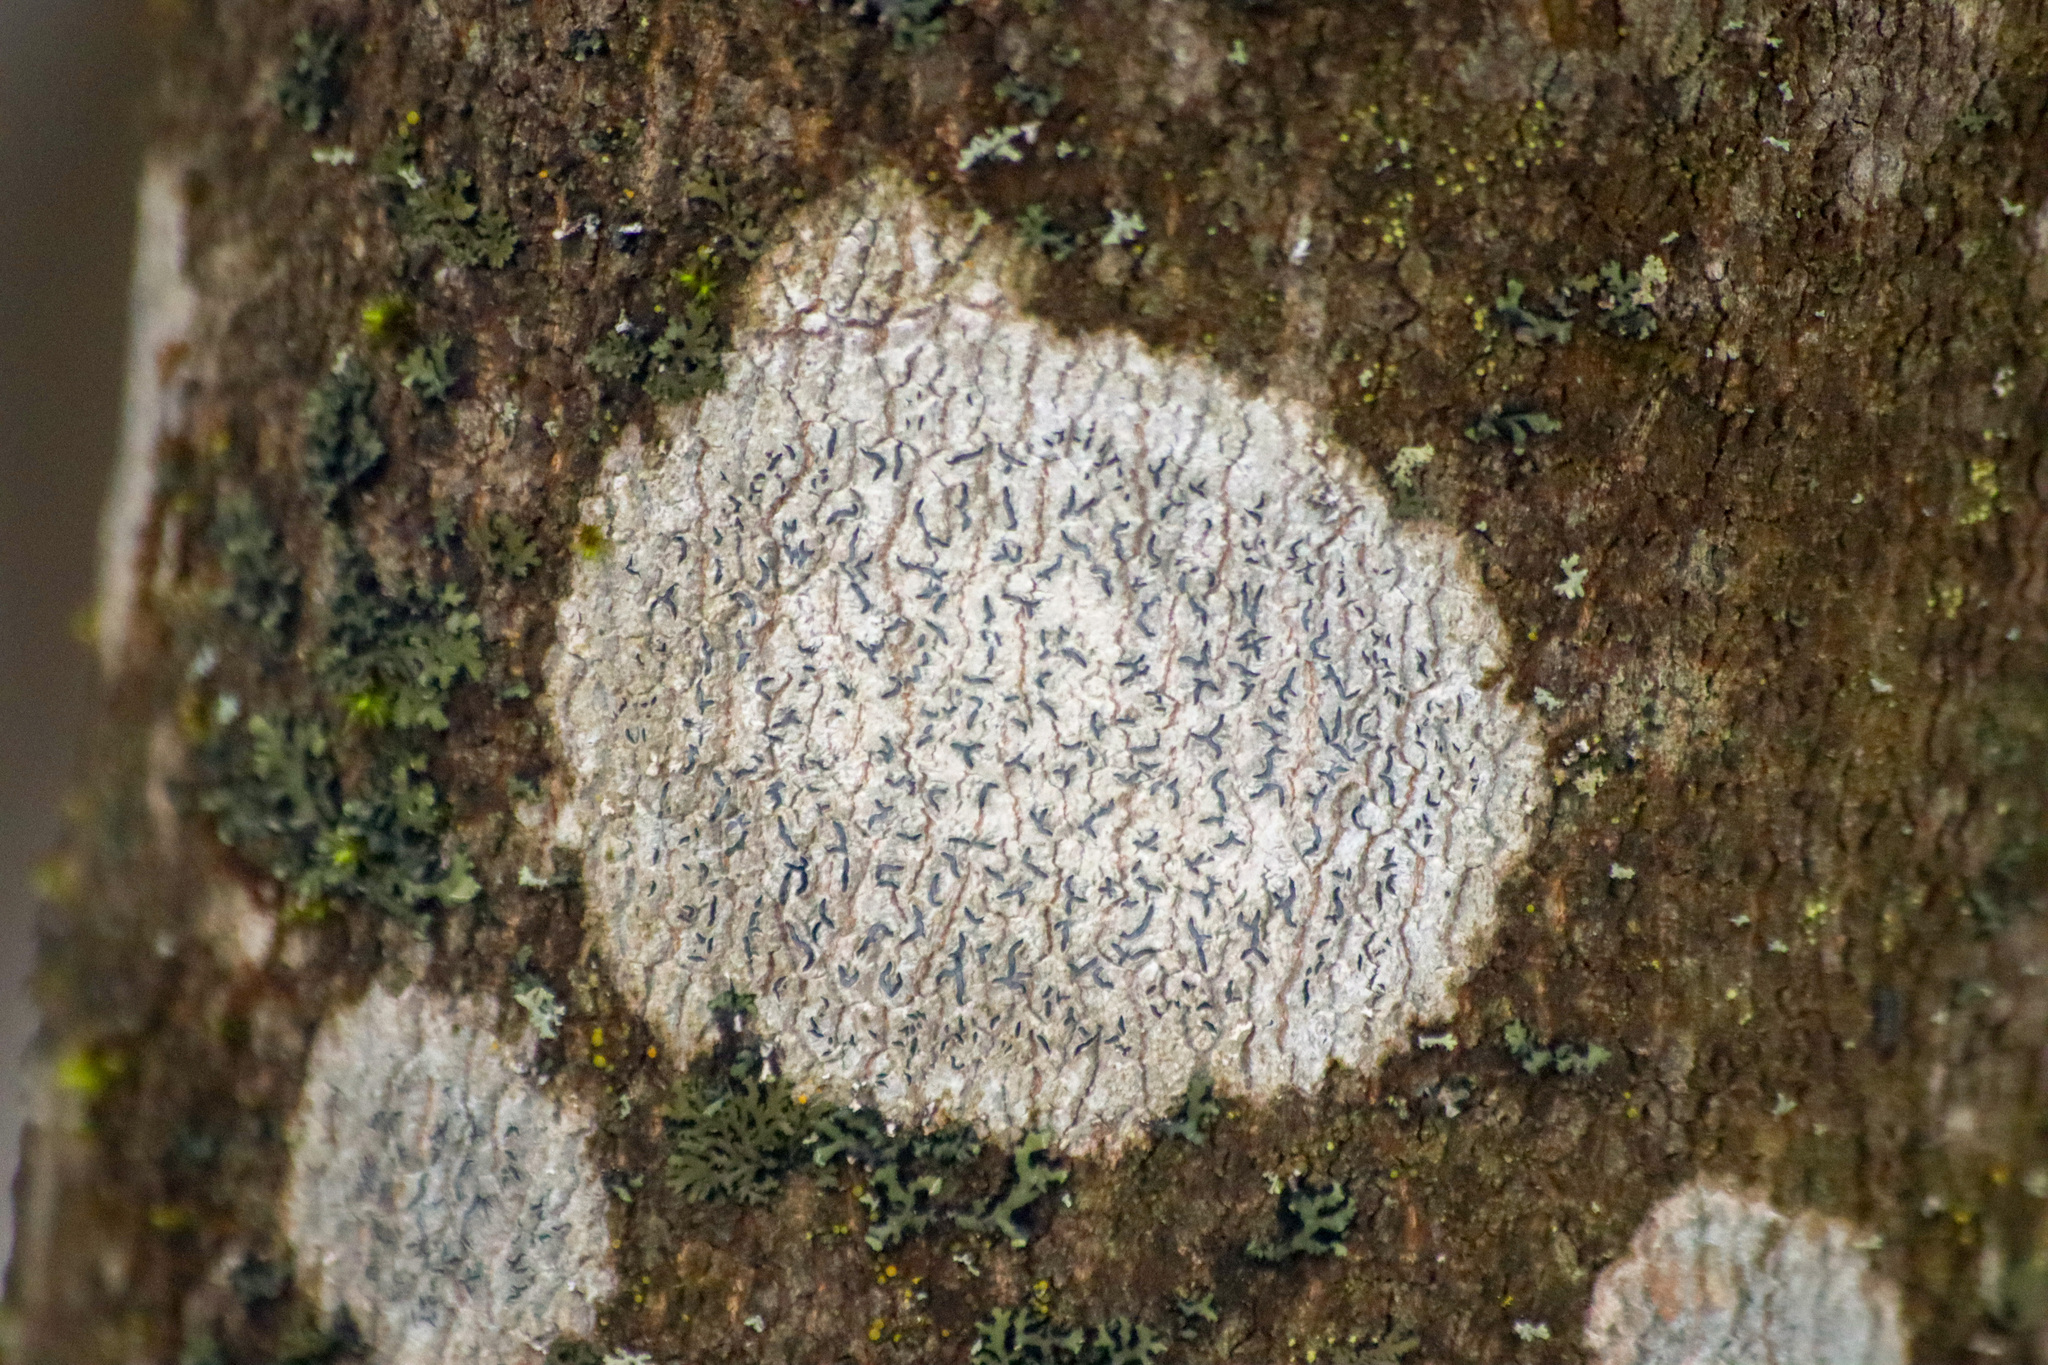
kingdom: Fungi
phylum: Ascomycota
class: Lecanoromycetes
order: Ostropales
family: Graphidaceae
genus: Graphis
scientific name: Graphis scripta
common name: Script lichen
